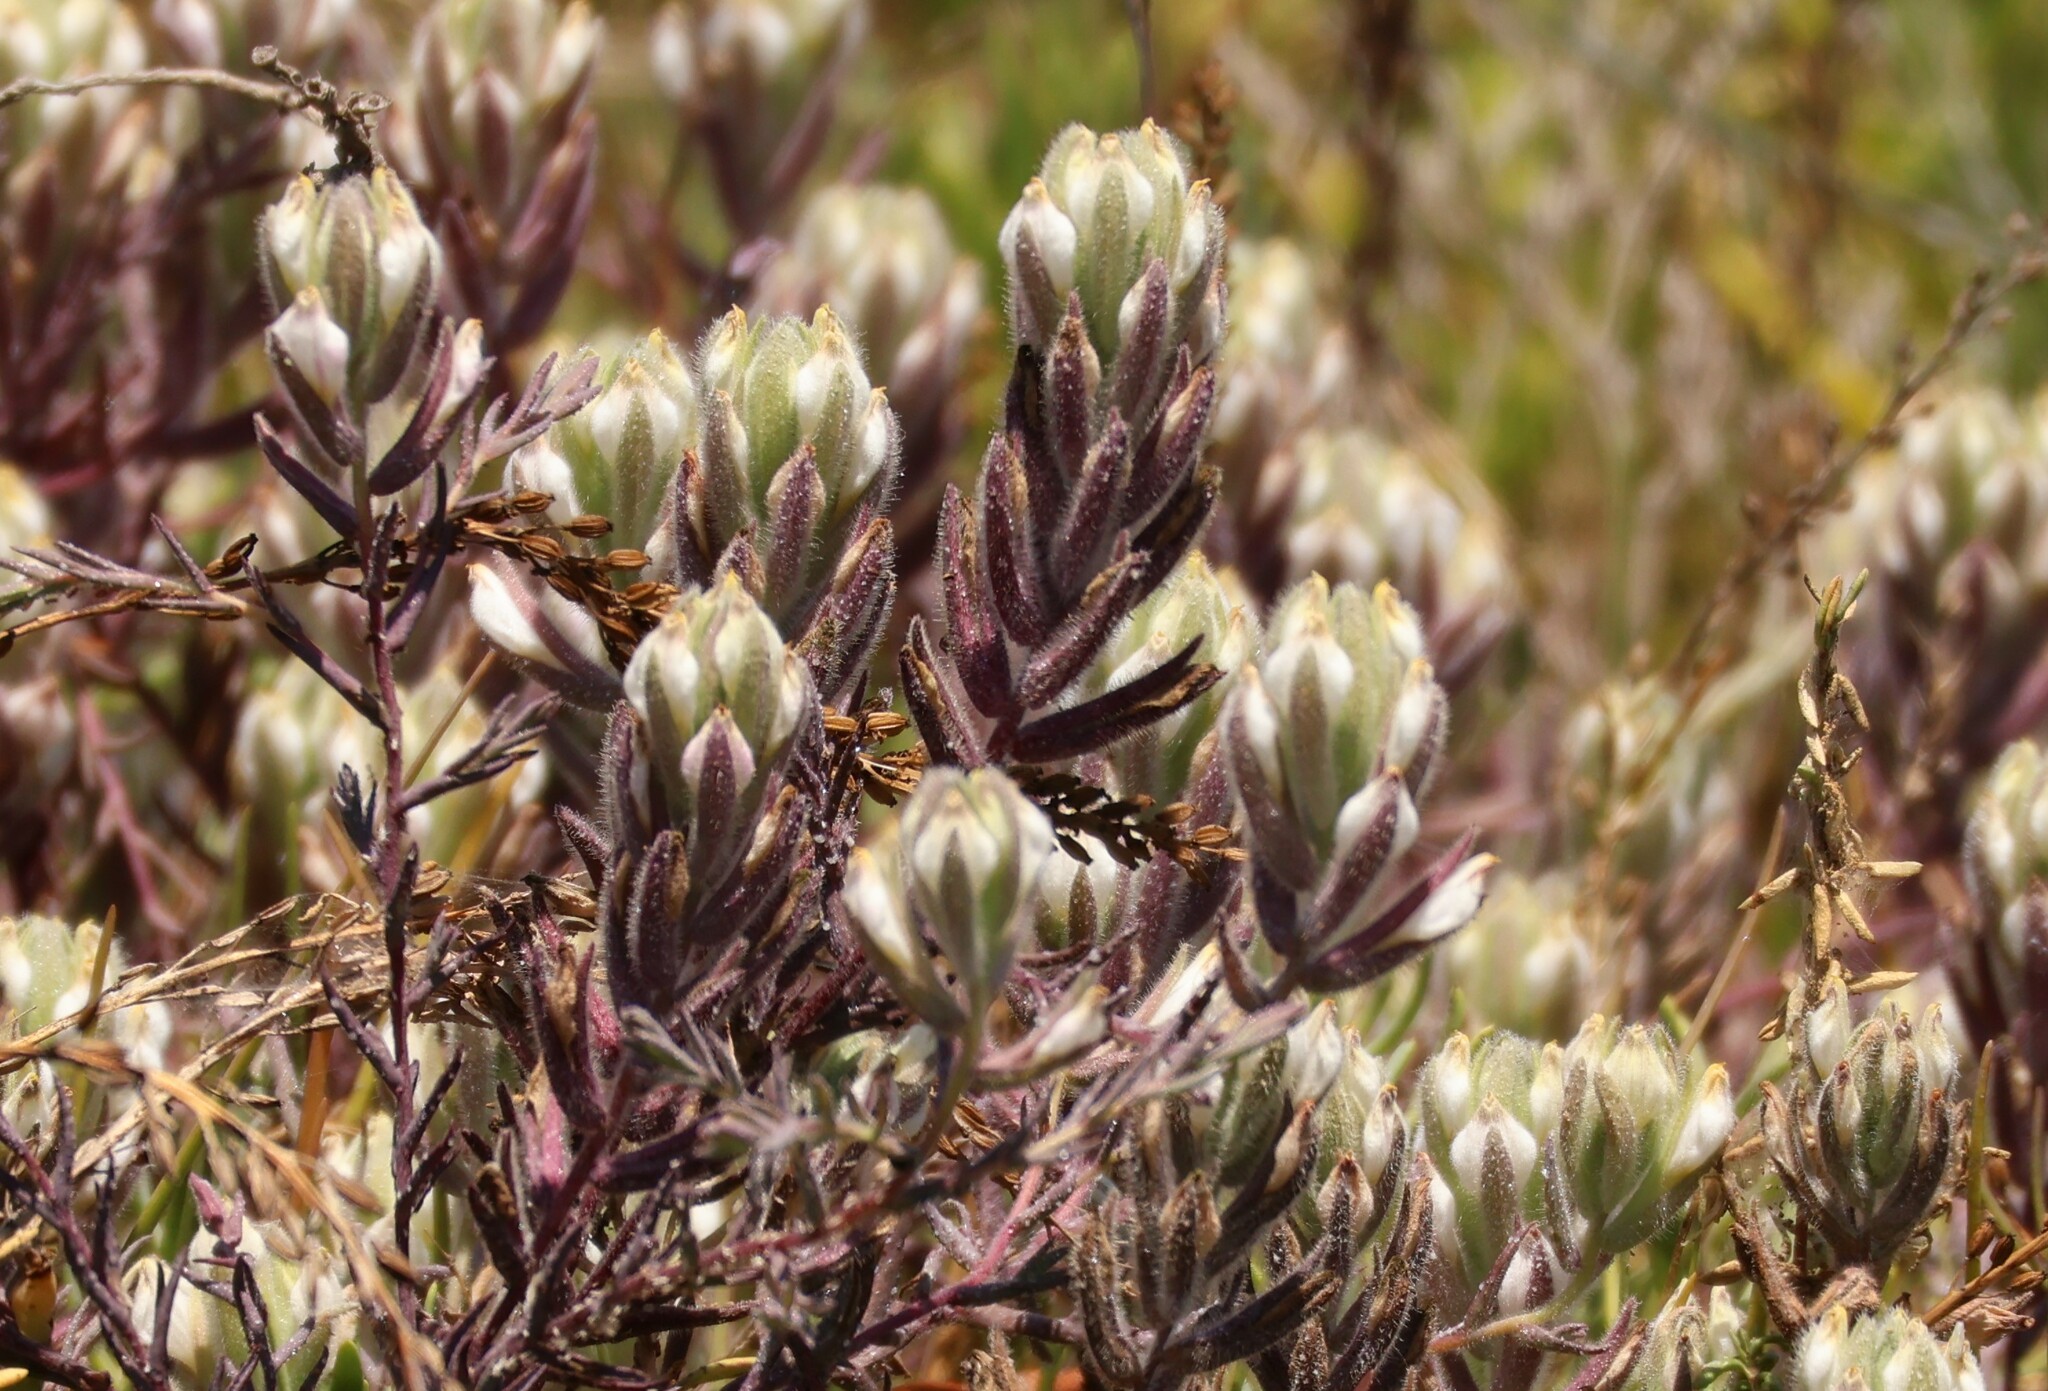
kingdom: Plantae
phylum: Tracheophyta
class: Magnoliopsida
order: Lamiales
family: Orobanchaceae
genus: Chloropyron
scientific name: Chloropyron maritimum
